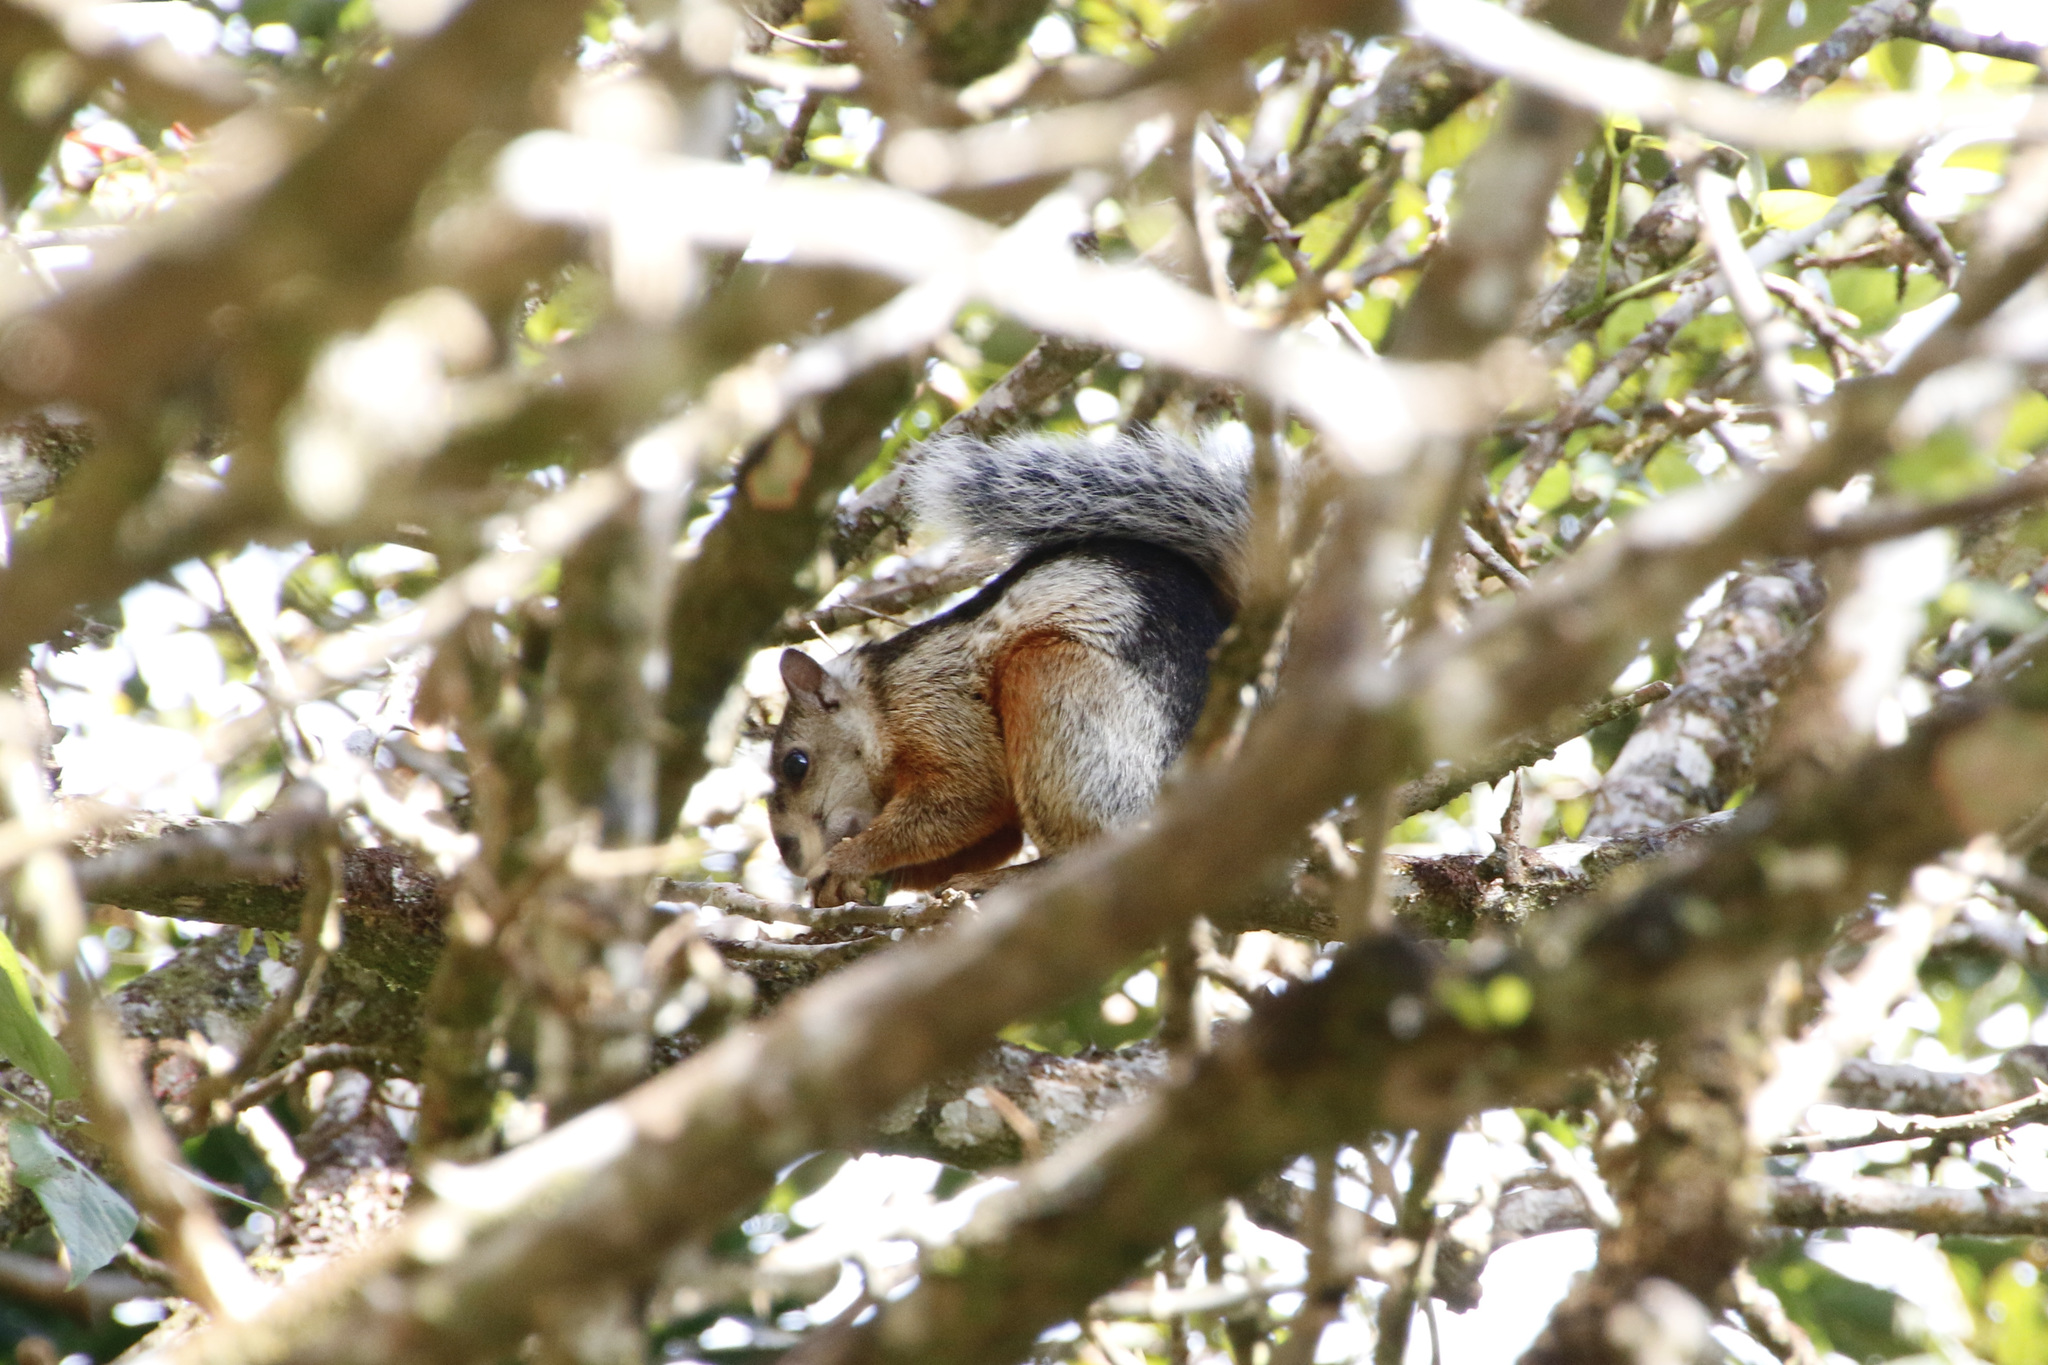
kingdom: Animalia
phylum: Chordata
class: Mammalia
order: Rodentia
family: Sciuridae
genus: Sciurus
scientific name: Sciurus variegatoides
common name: Variegated squirrel
